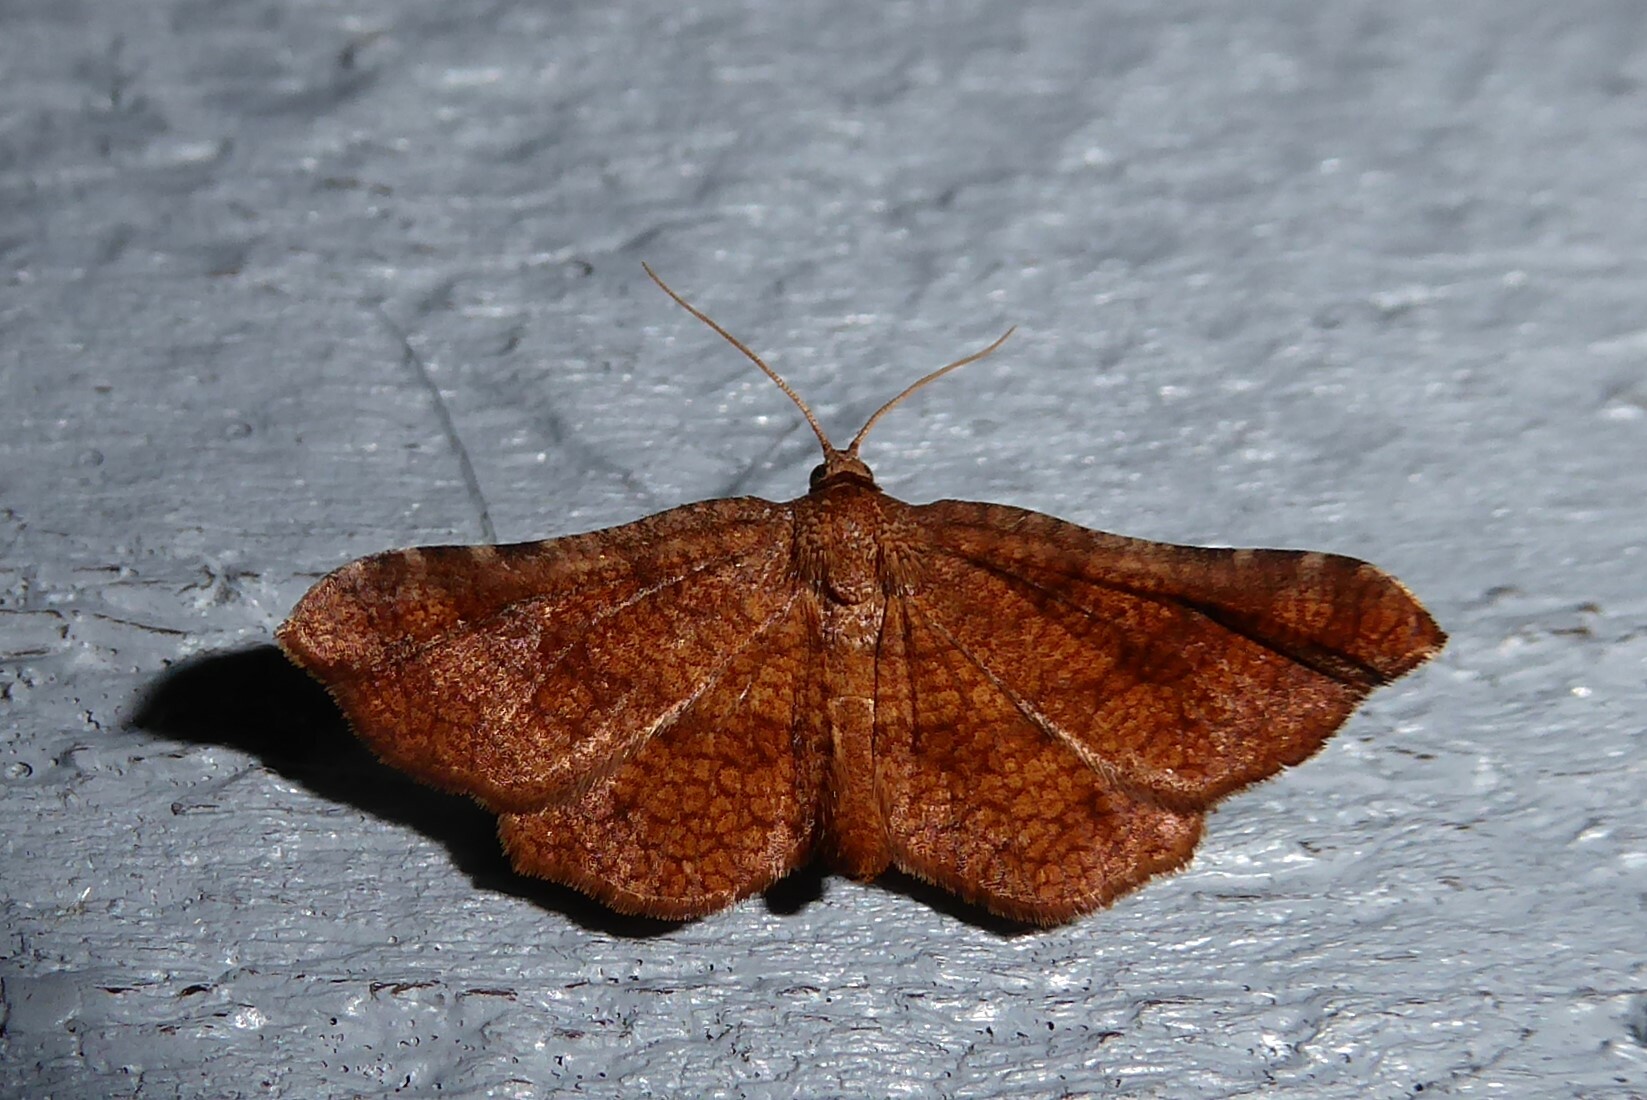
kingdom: Animalia
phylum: Arthropoda
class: Insecta
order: Lepidoptera
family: Thyrididae
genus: Morova
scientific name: Morova subfasciata
